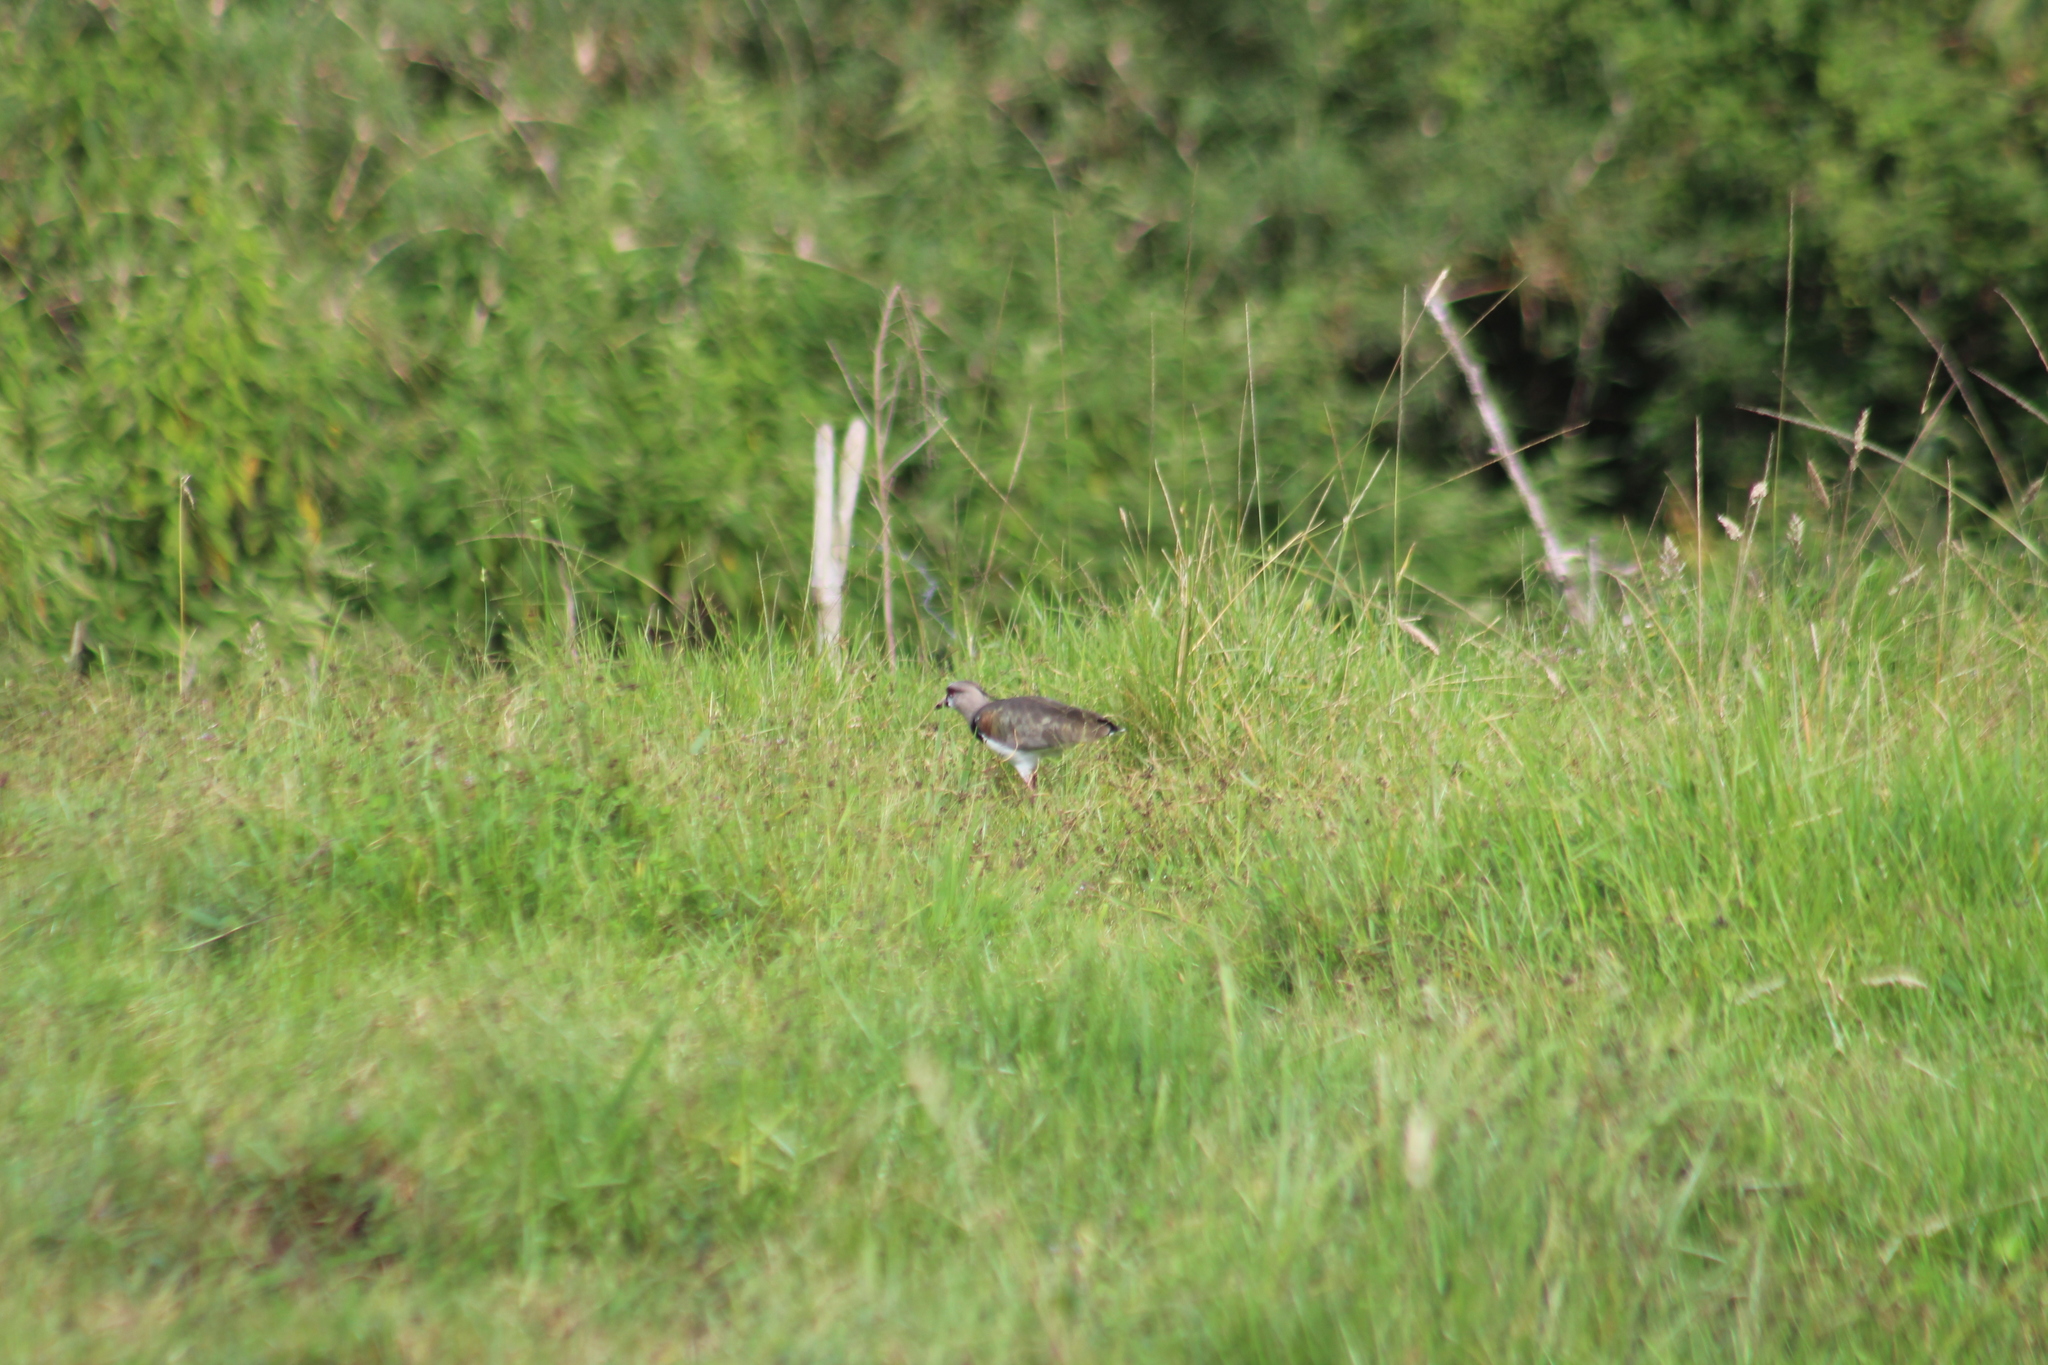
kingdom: Animalia
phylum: Chordata
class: Aves
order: Charadriiformes
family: Charadriidae
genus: Vanellus
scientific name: Vanellus chilensis
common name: Southern lapwing
